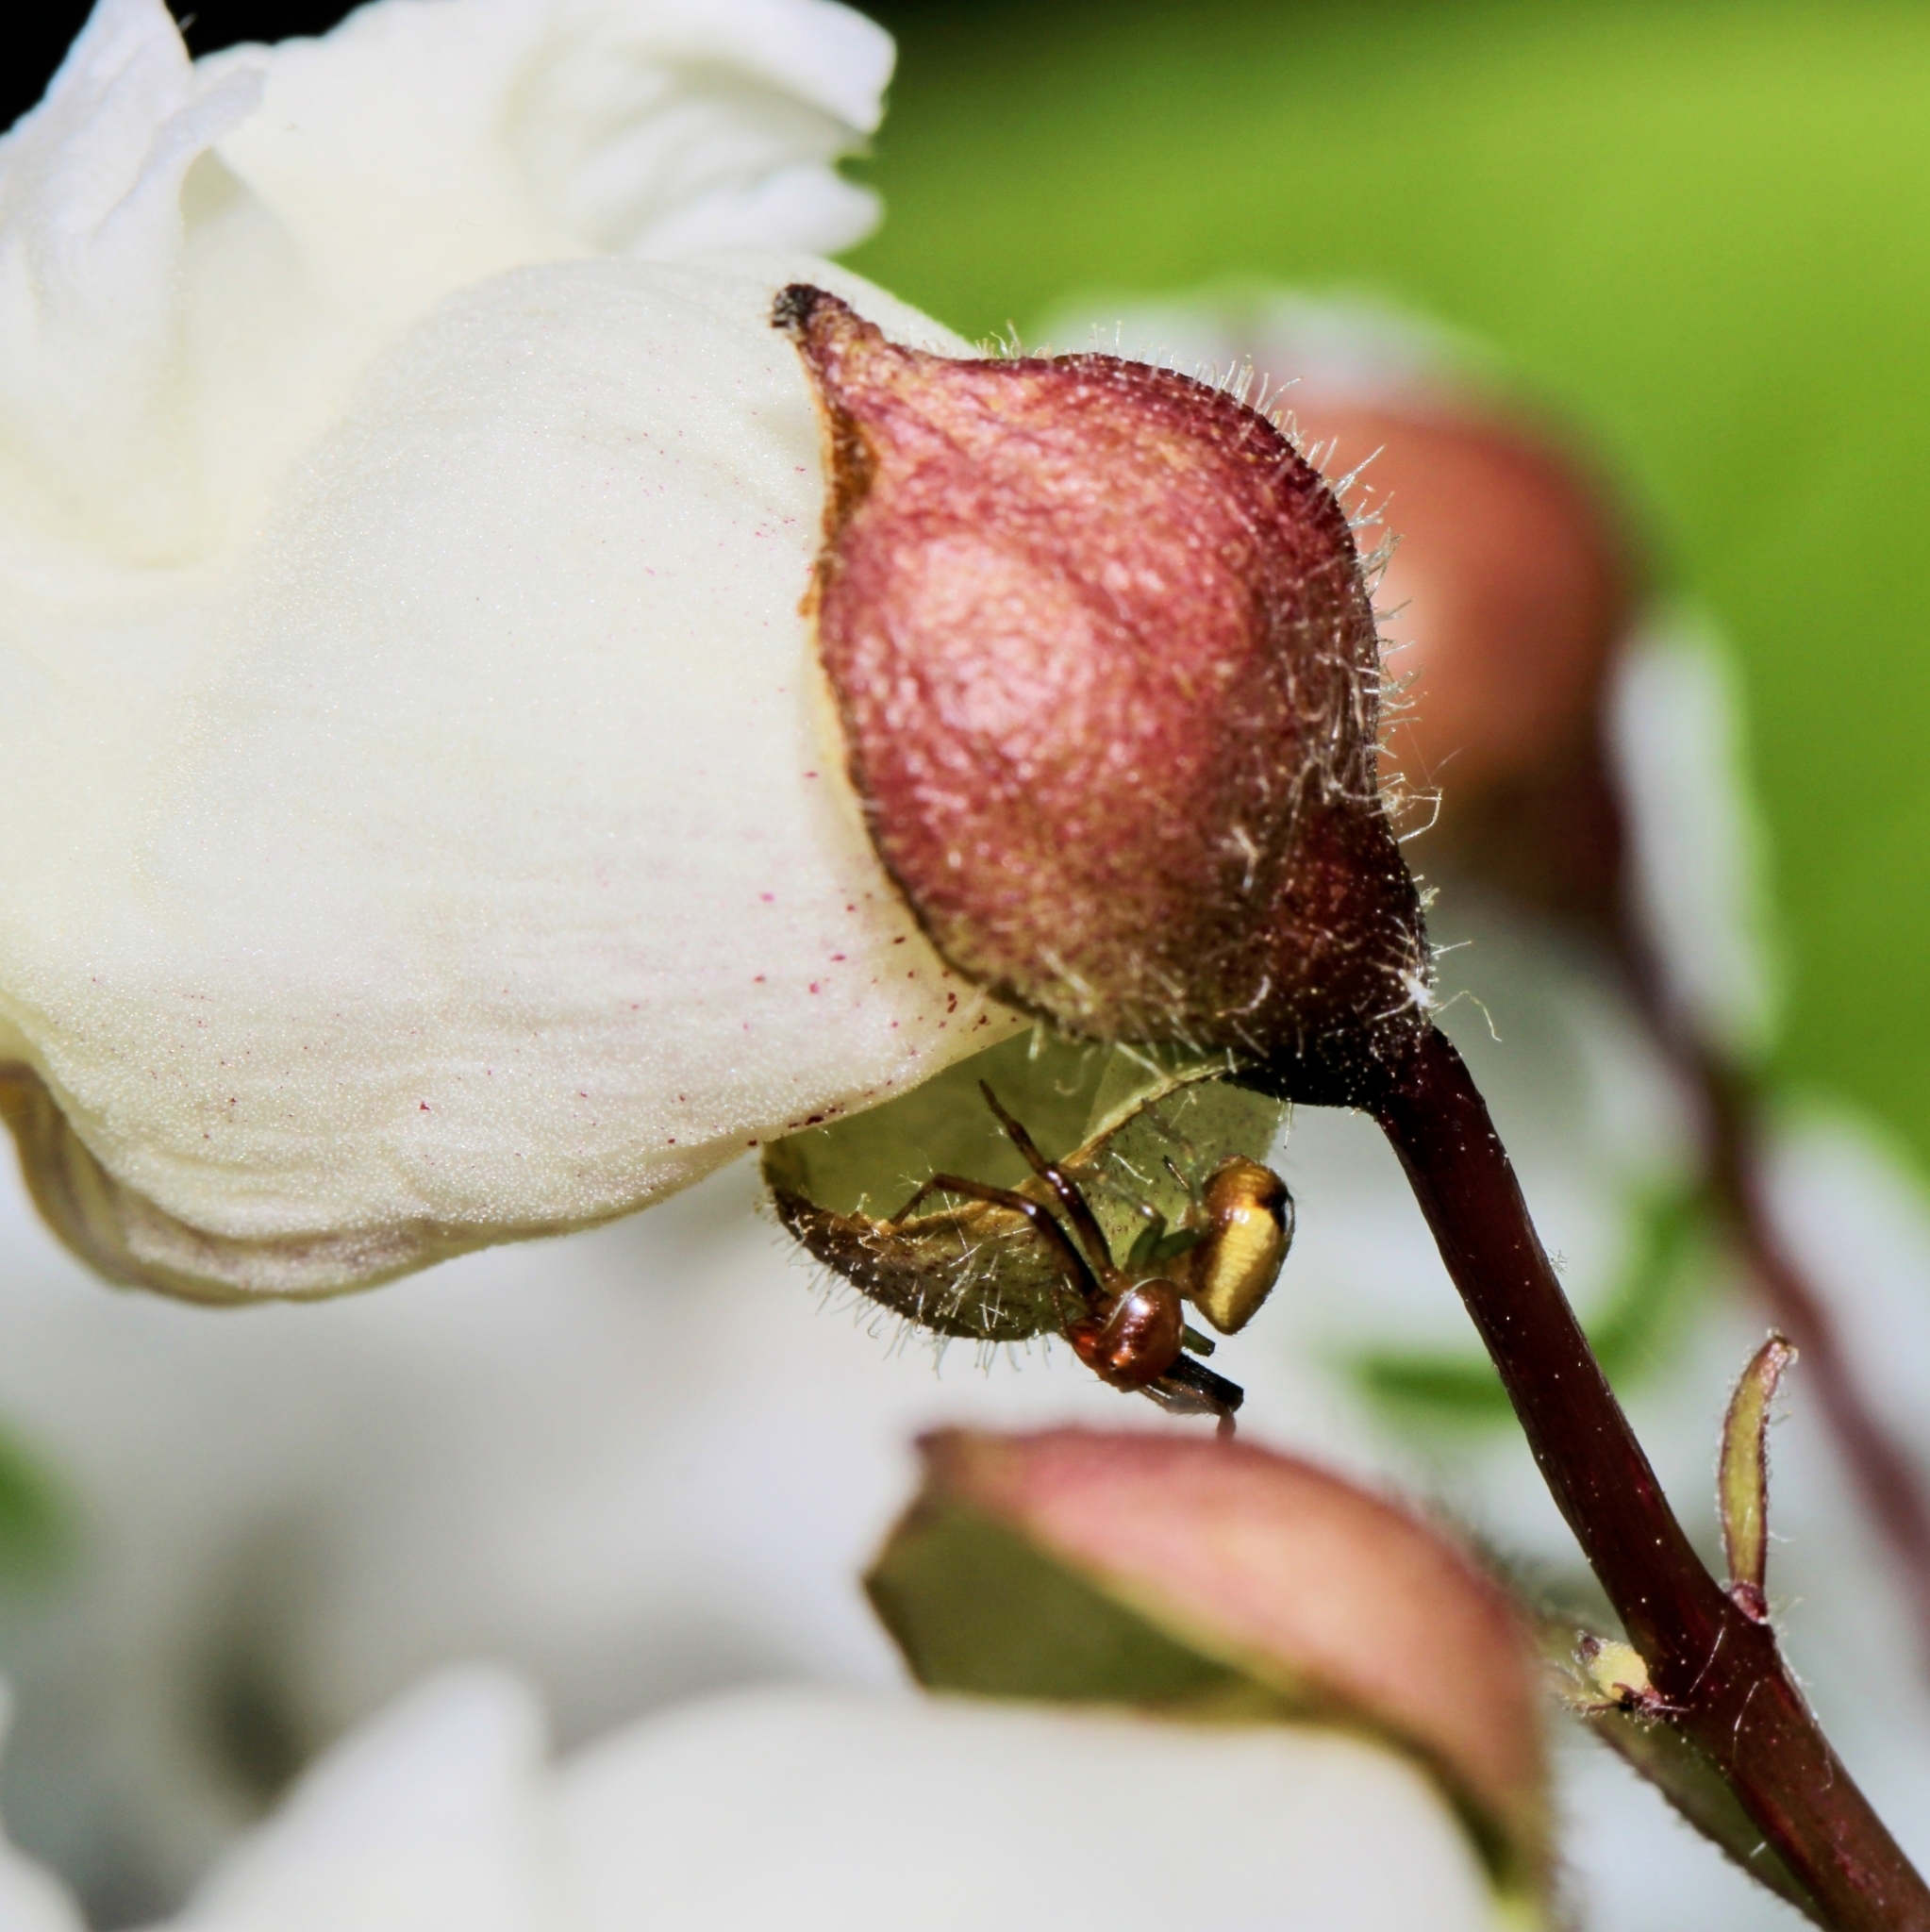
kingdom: Animalia
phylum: Arthropoda
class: Arachnida
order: Araneae
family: Thomisidae
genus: Synema
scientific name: Synema parvulum
